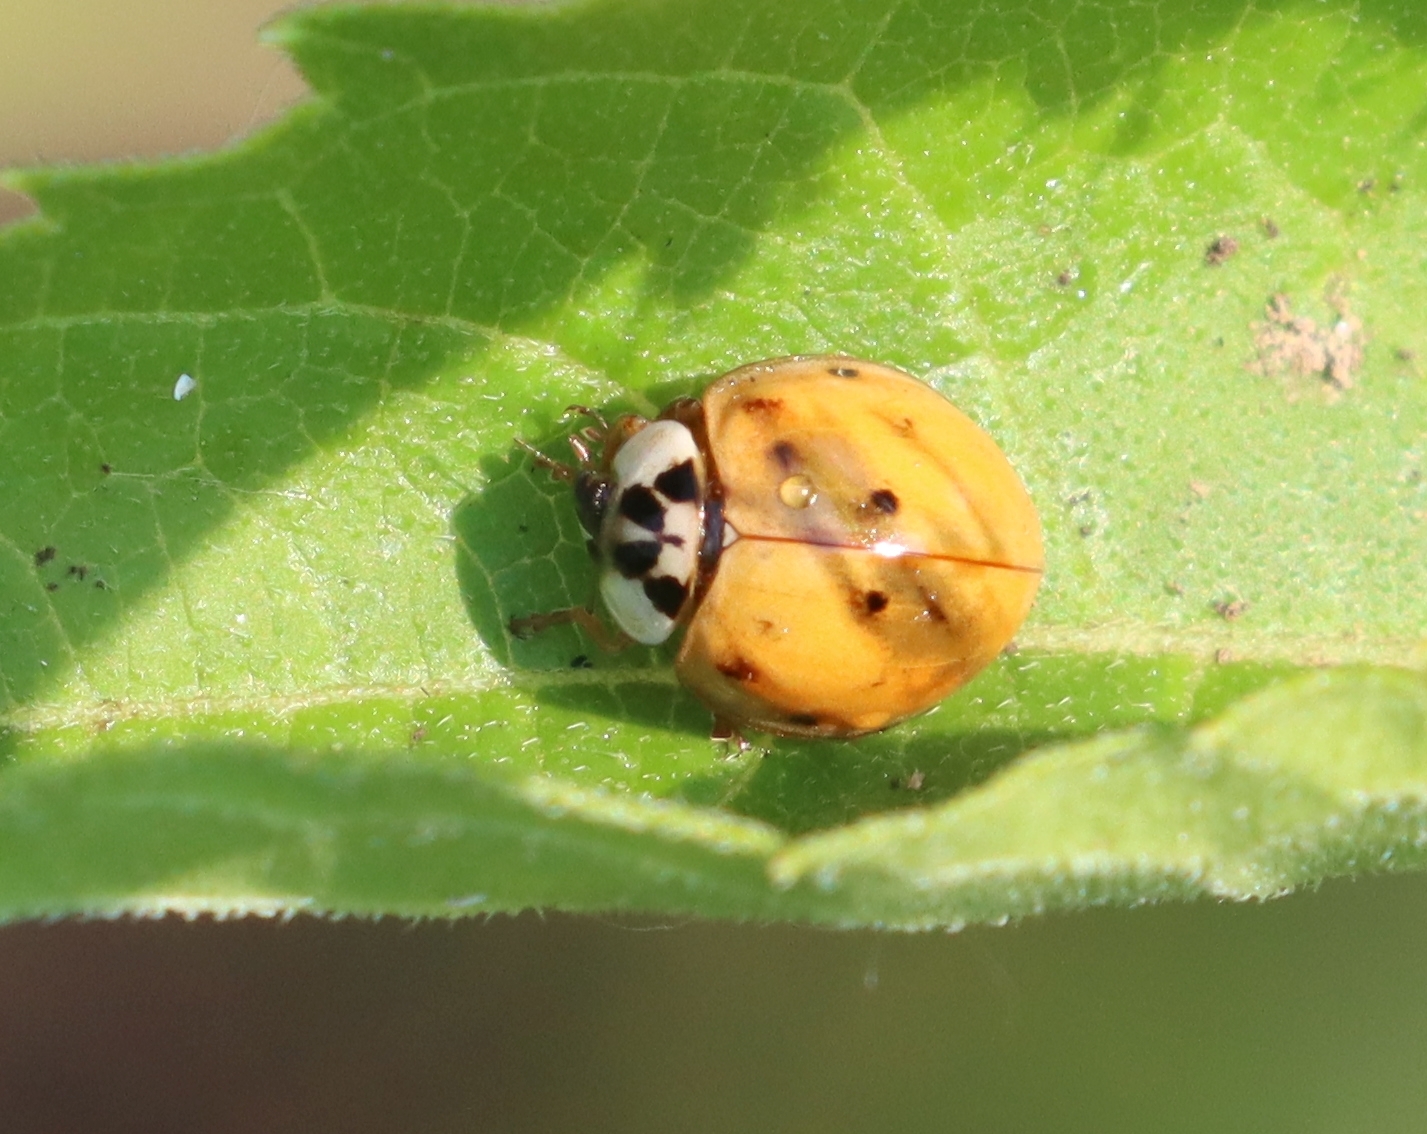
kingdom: Animalia
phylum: Arthropoda
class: Insecta
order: Coleoptera
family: Coccinellidae
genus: Harmonia
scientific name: Harmonia axyridis
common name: Harlequin ladybird
